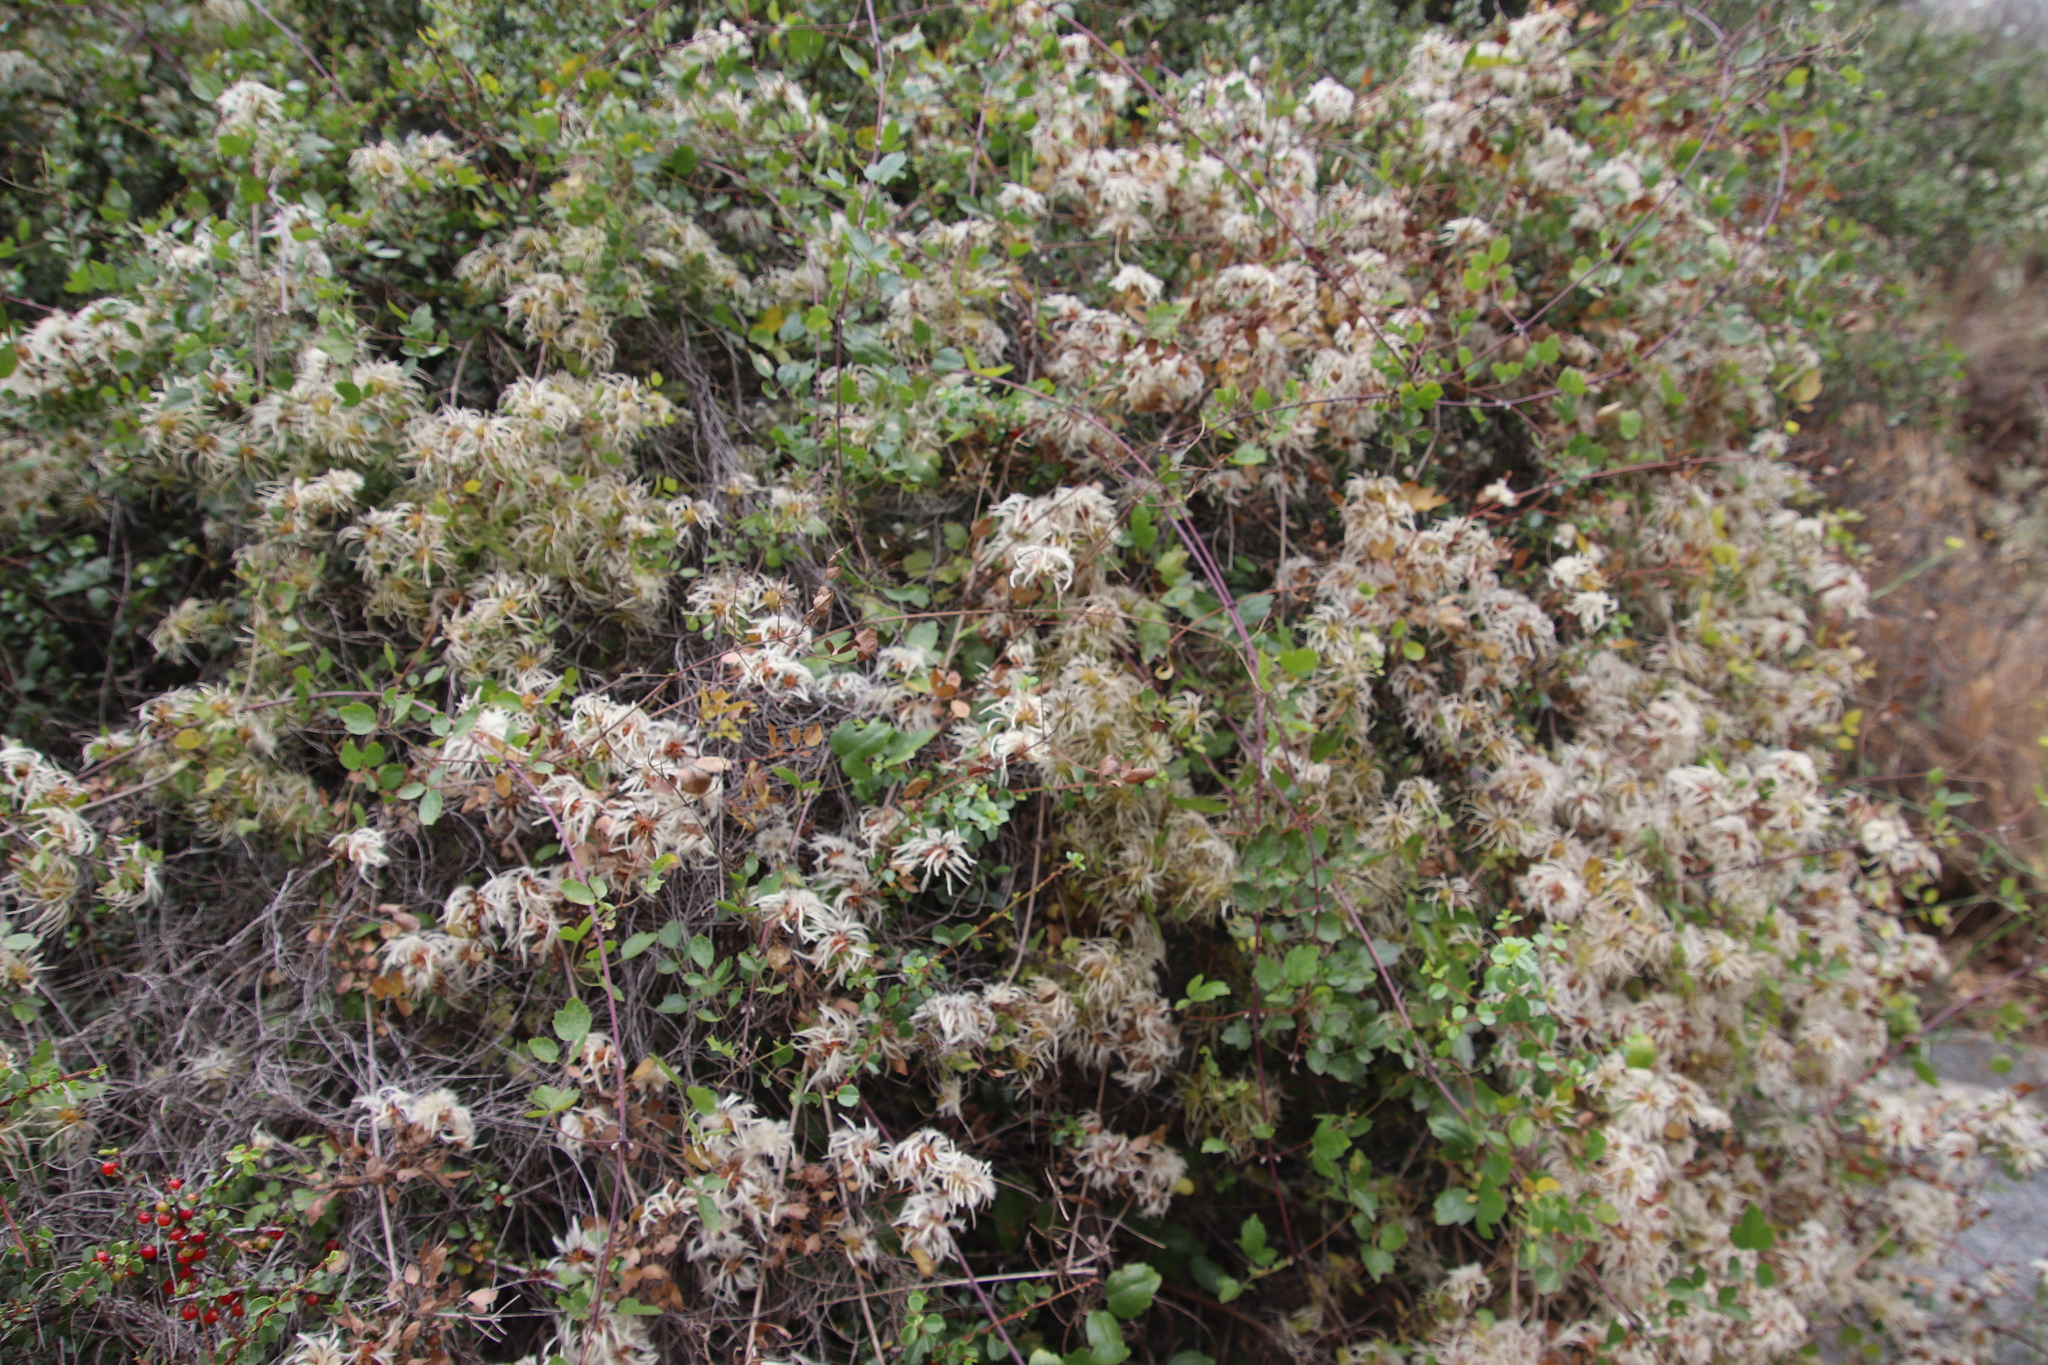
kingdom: Plantae
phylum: Tracheophyta
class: Magnoliopsida
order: Ranunculales
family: Ranunculaceae
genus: Clematis
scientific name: Clematis pauciflora
